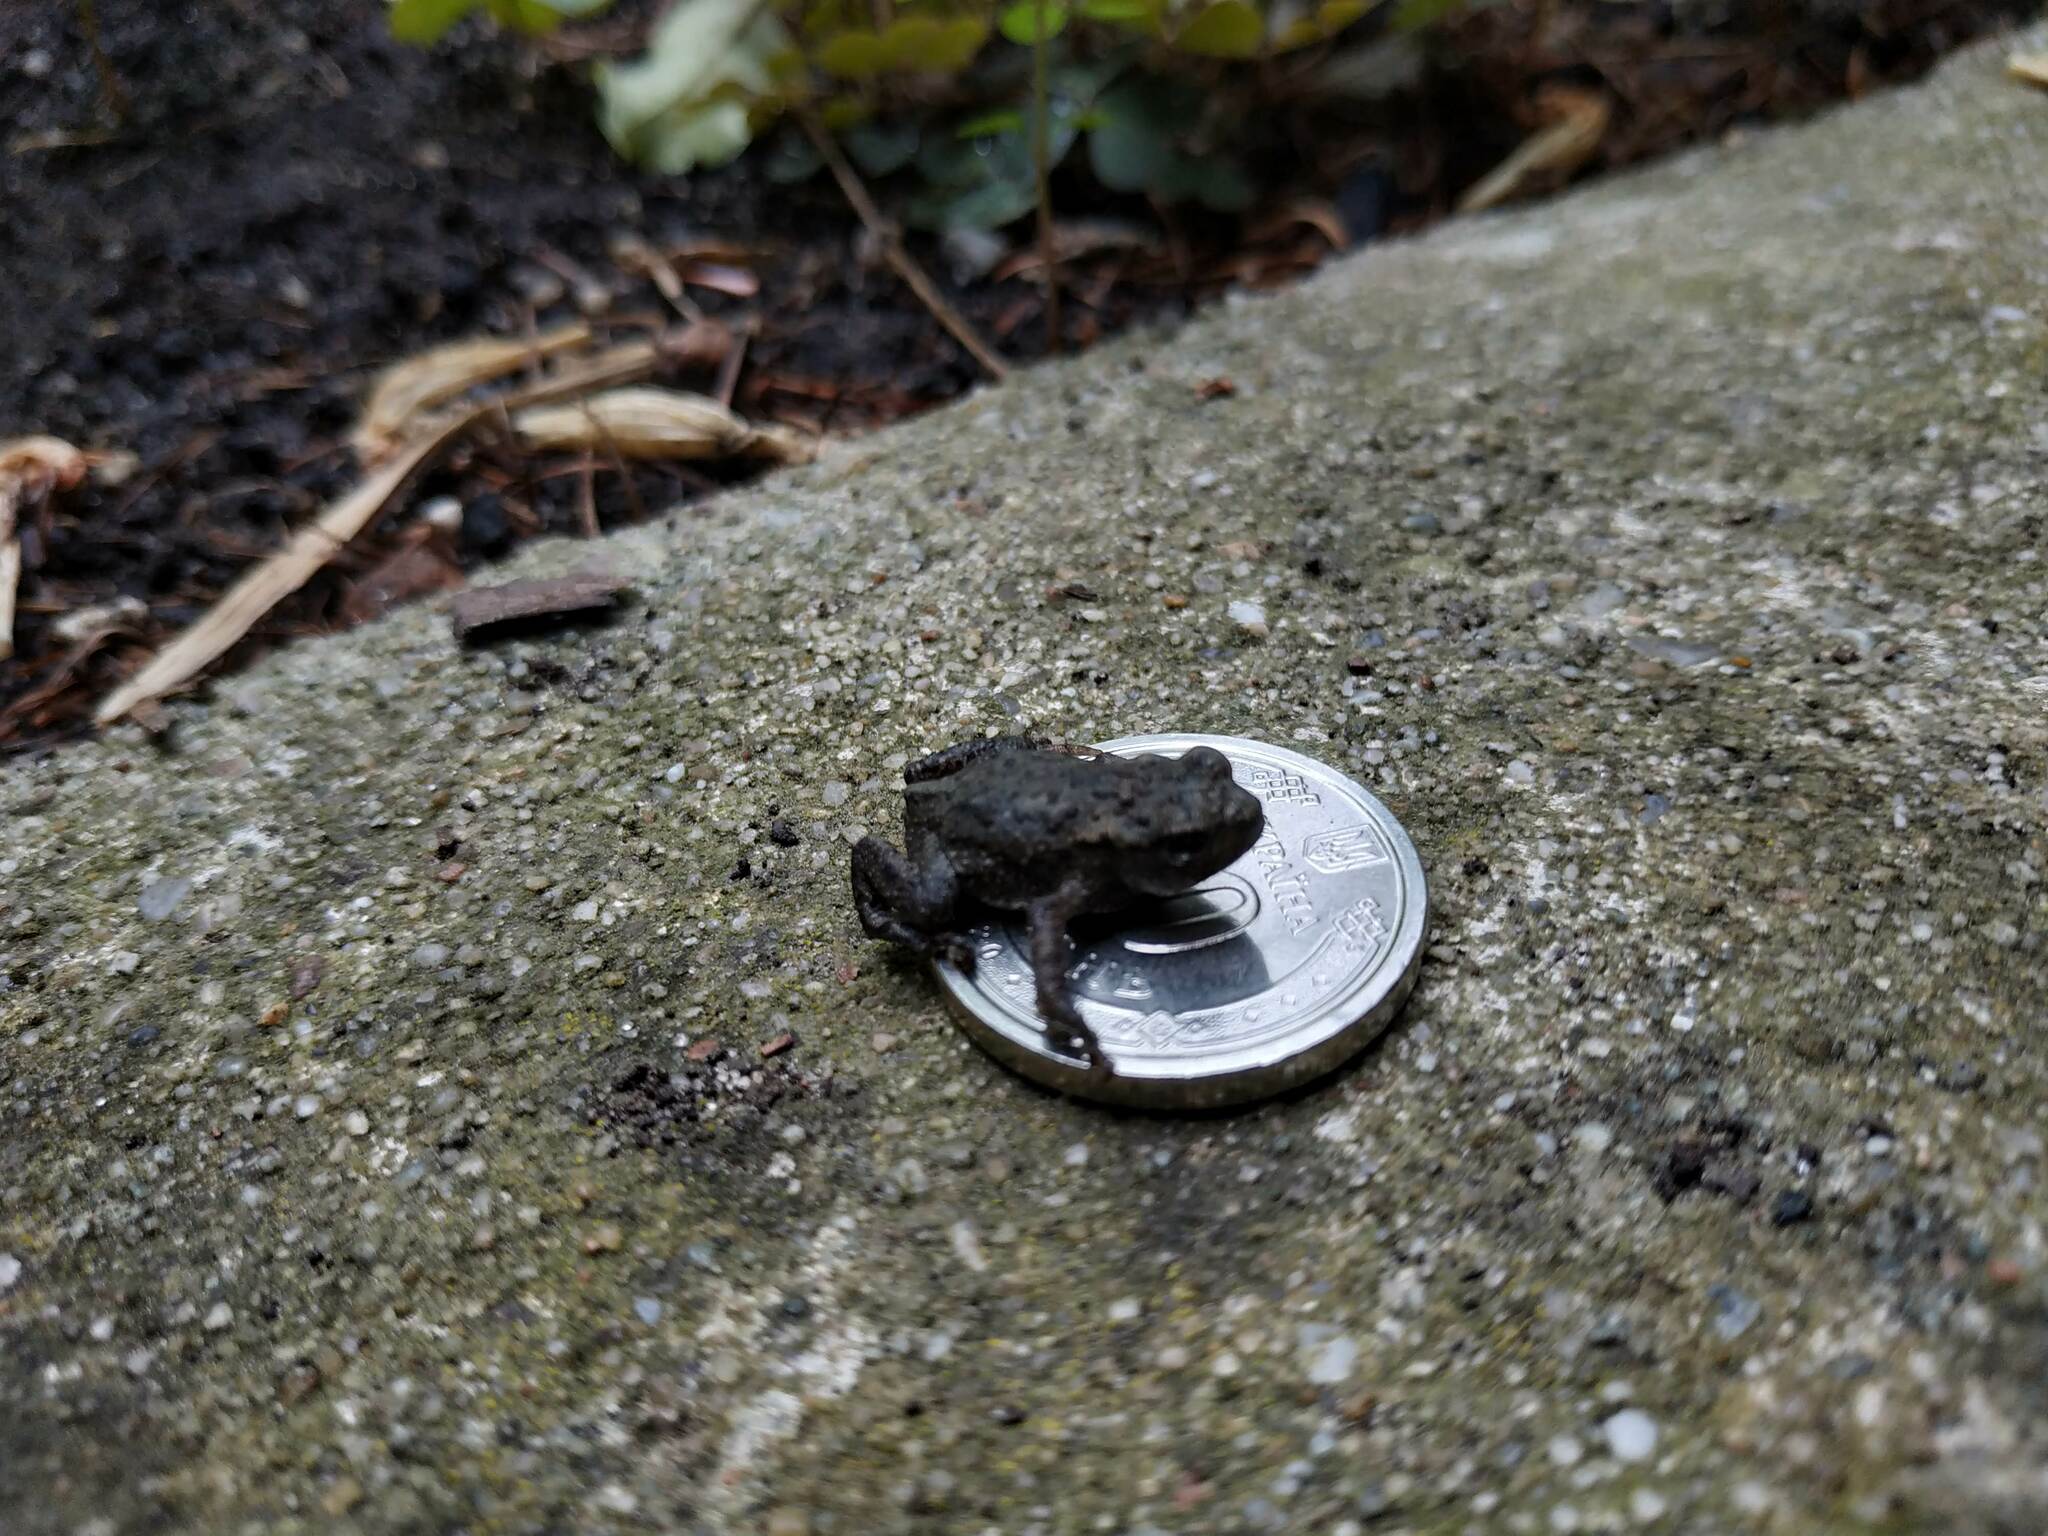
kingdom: Animalia
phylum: Chordata
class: Amphibia
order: Anura
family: Bufonidae
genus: Bufo
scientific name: Bufo bufo
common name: Common toad
